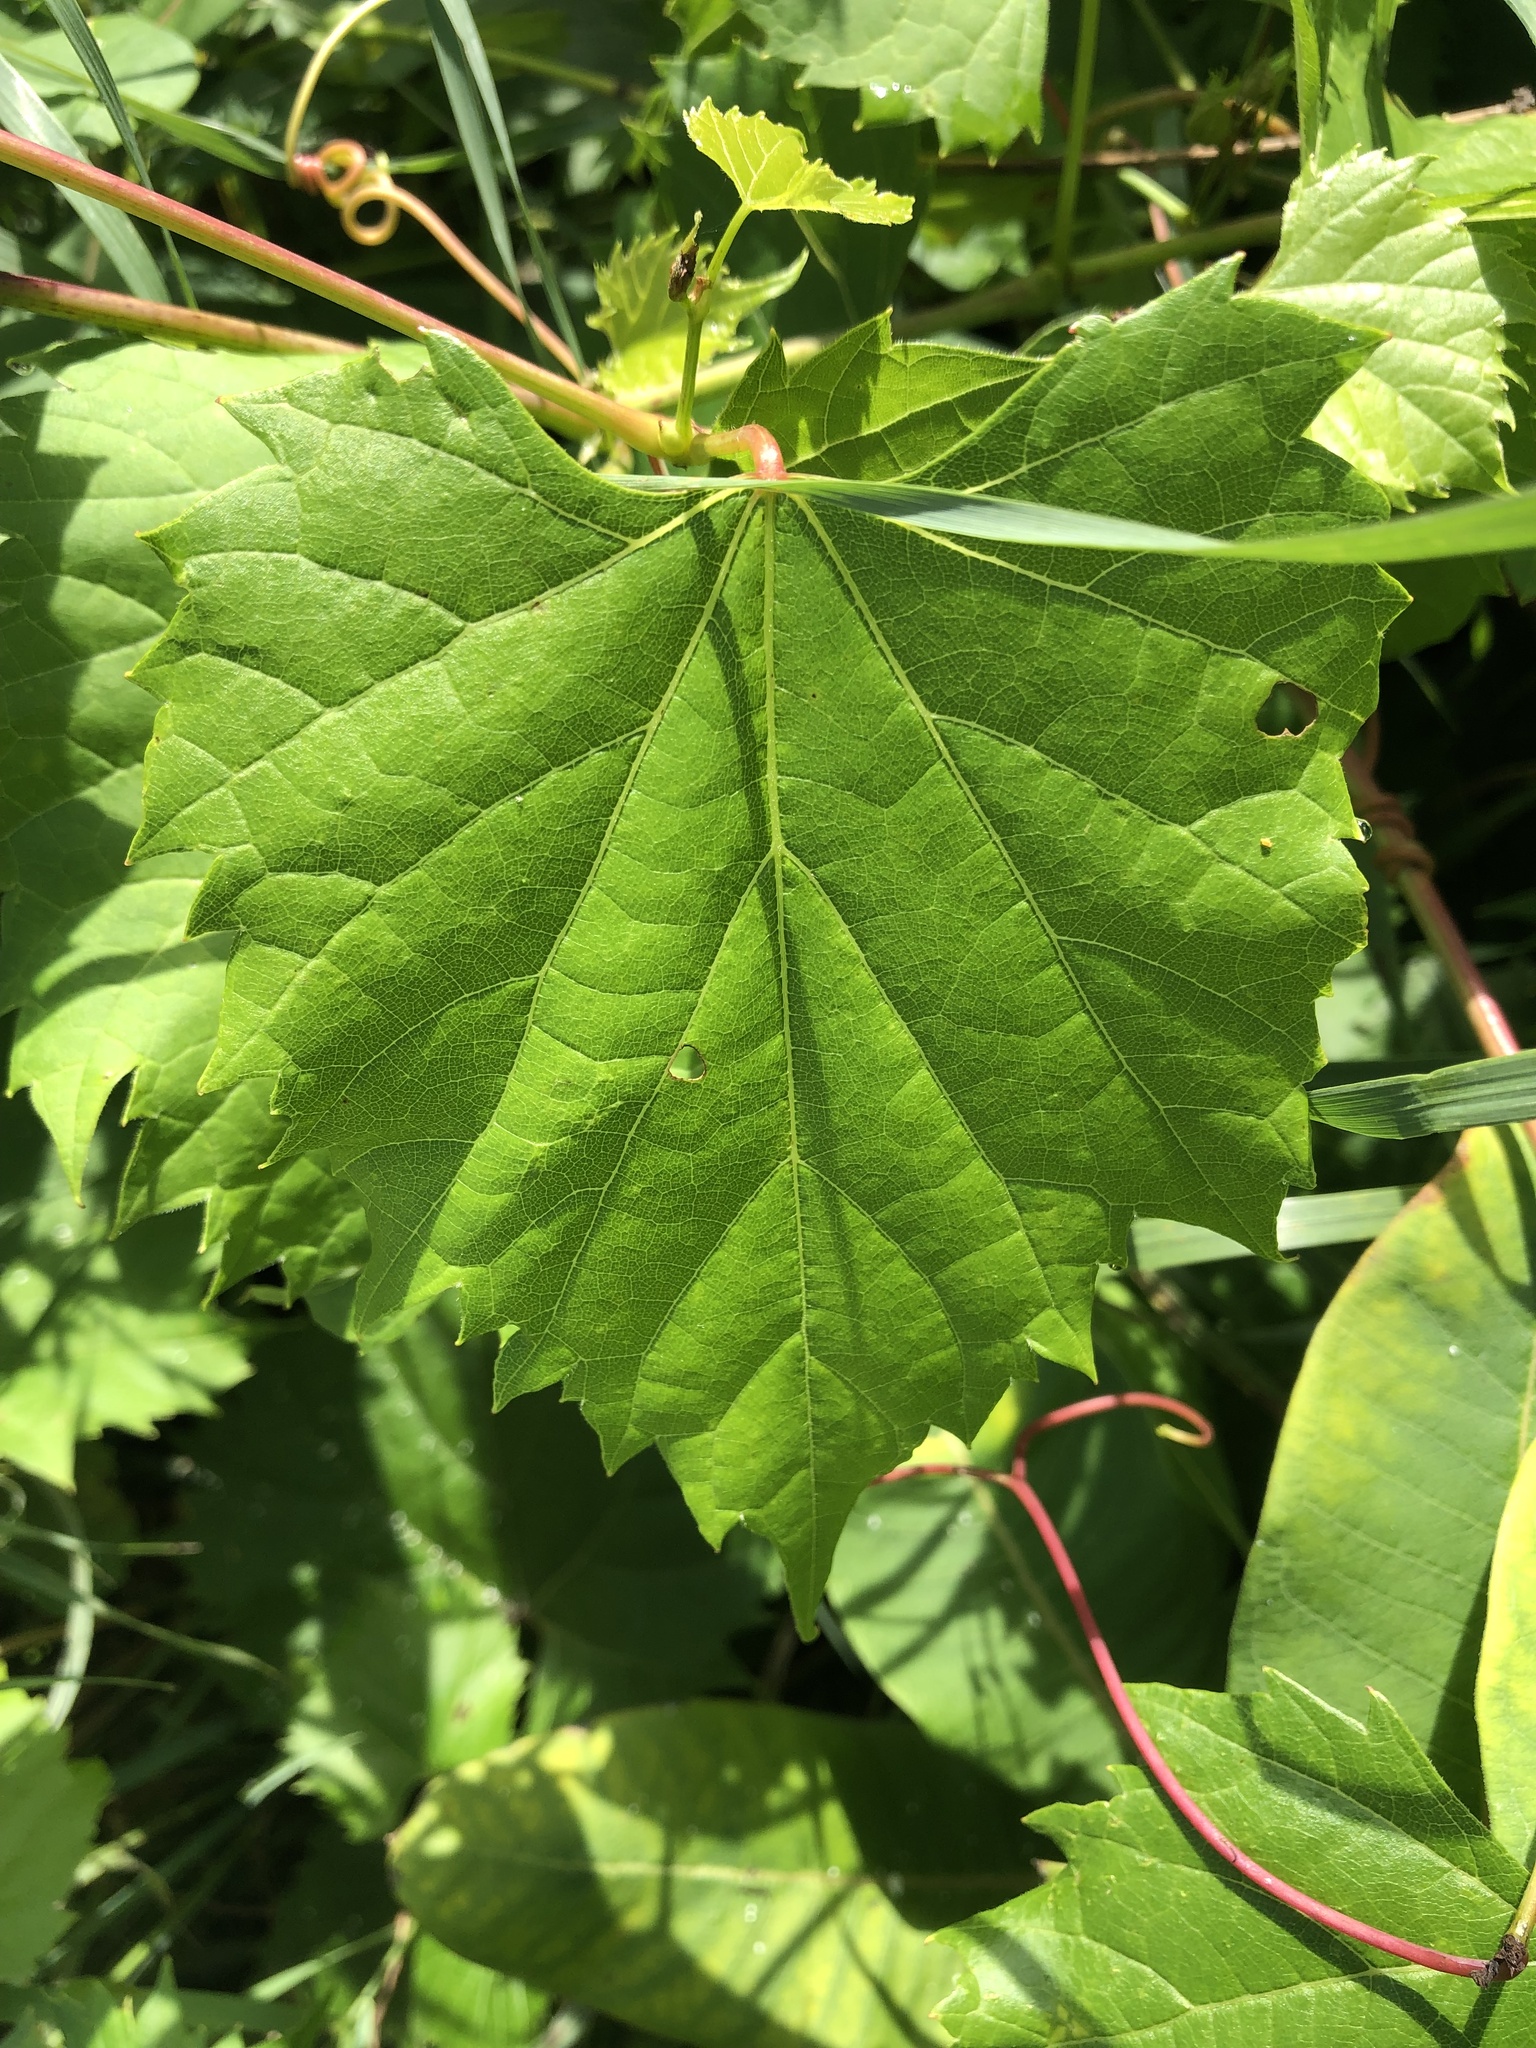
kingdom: Plantae
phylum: Tracheophyta
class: Magnoliopsida
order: Vitales
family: Vitaceae
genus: Vitis
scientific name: Vitis riparia
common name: Frost grape
